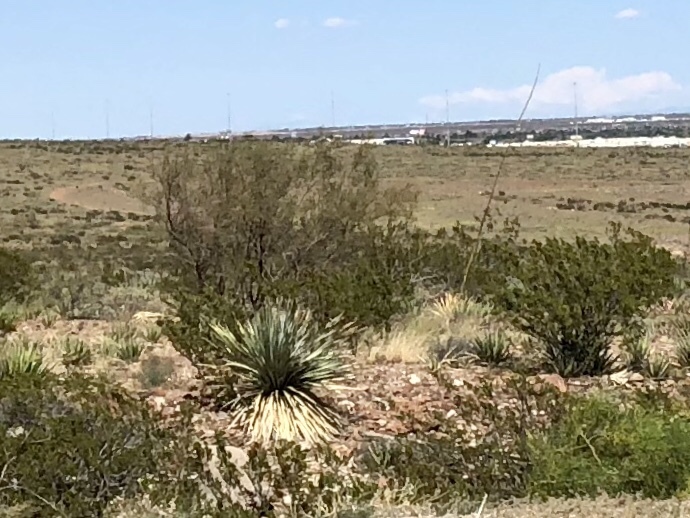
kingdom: Plantae
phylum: Tracheophyta
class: Magnoliopsida
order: Zygophyllales
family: Zygophyllaceae
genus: Larrea
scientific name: Larrea tridentata
